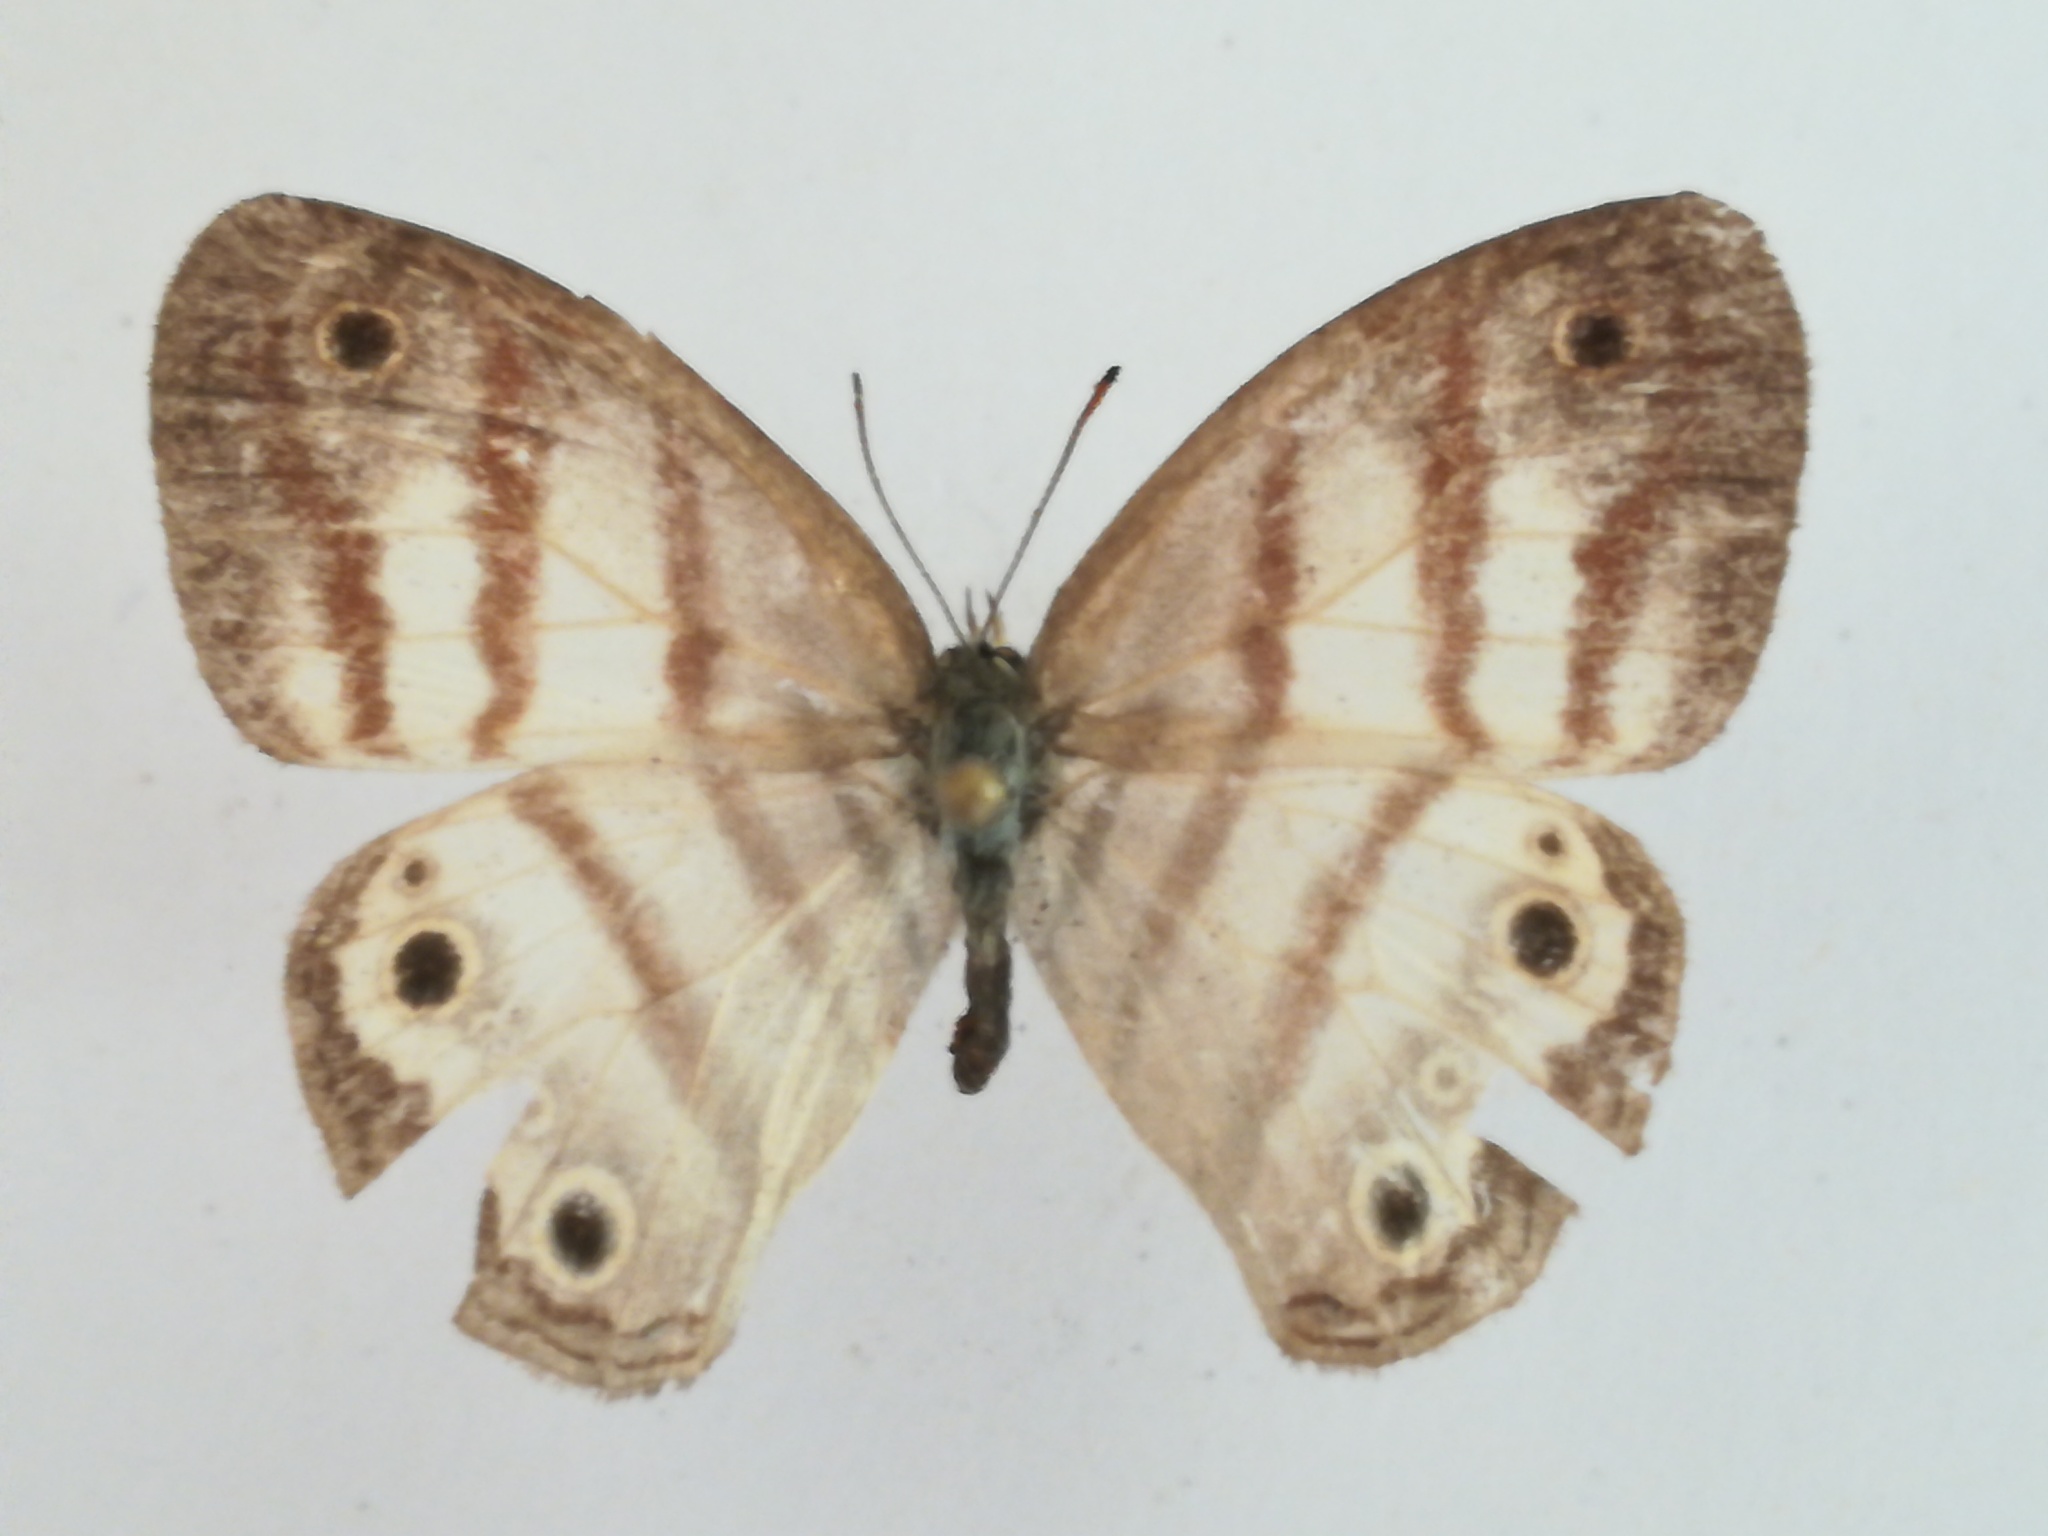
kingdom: Animalia
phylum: Arthropoda
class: Insecta
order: Lepidoptera
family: Nymphalidae
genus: Euptychia
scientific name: Euptychia mollina
